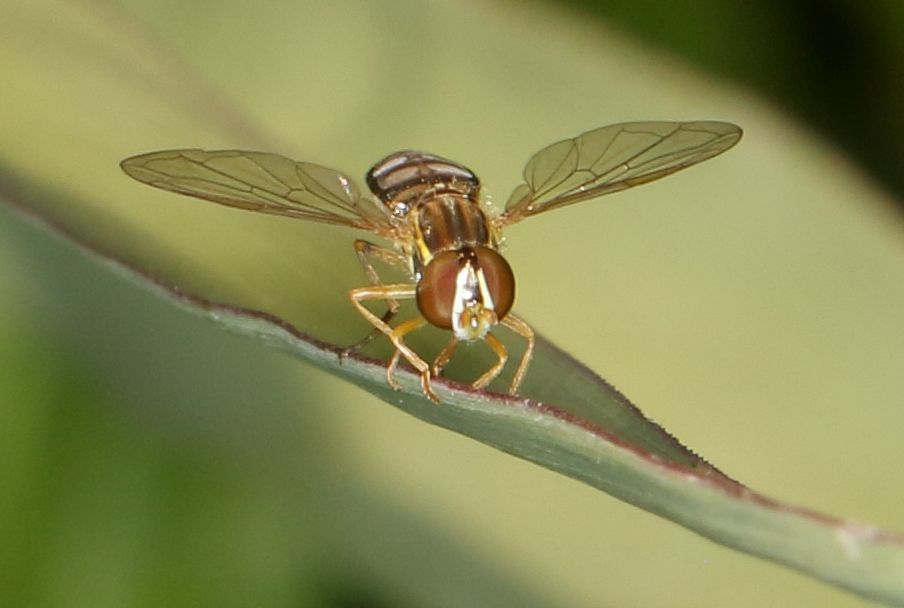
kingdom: Animalia
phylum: Arthropoda
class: Insecta
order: Diptera
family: Syrphidae
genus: Toxomerus
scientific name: Toxomerus floralis
